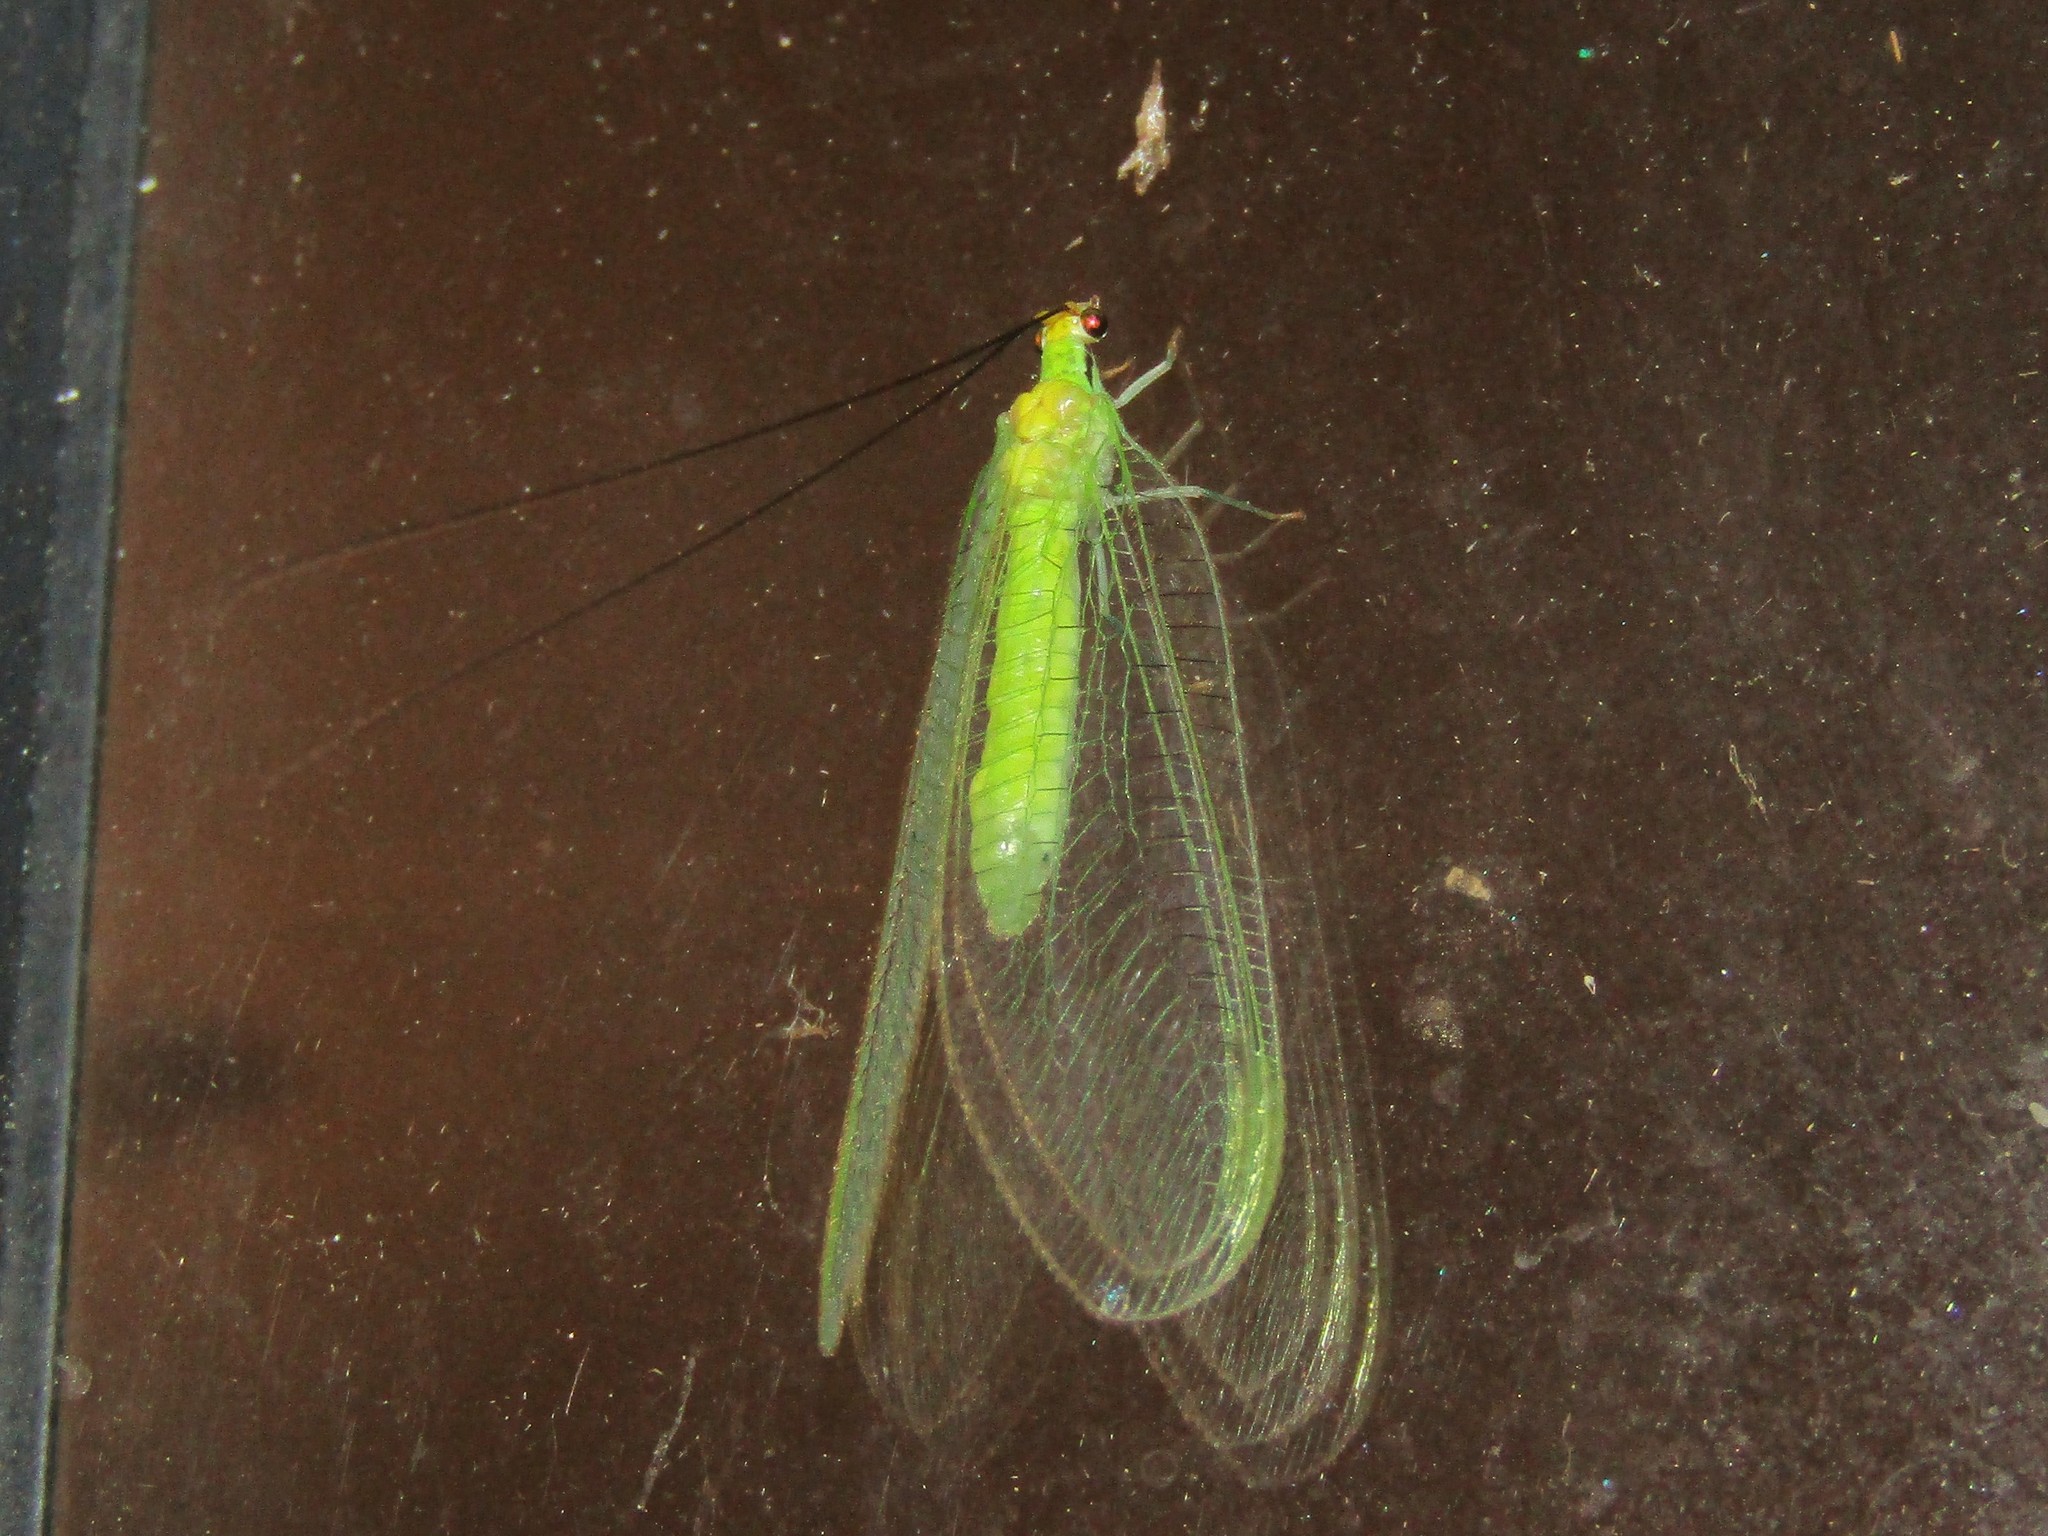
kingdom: Animalia
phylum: Arthropoda
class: Insecta
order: Neuroptera
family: Chrysopidae
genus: Leucochrysa
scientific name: Leucochrysa pavida
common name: Lichen-carrying green lacewing
